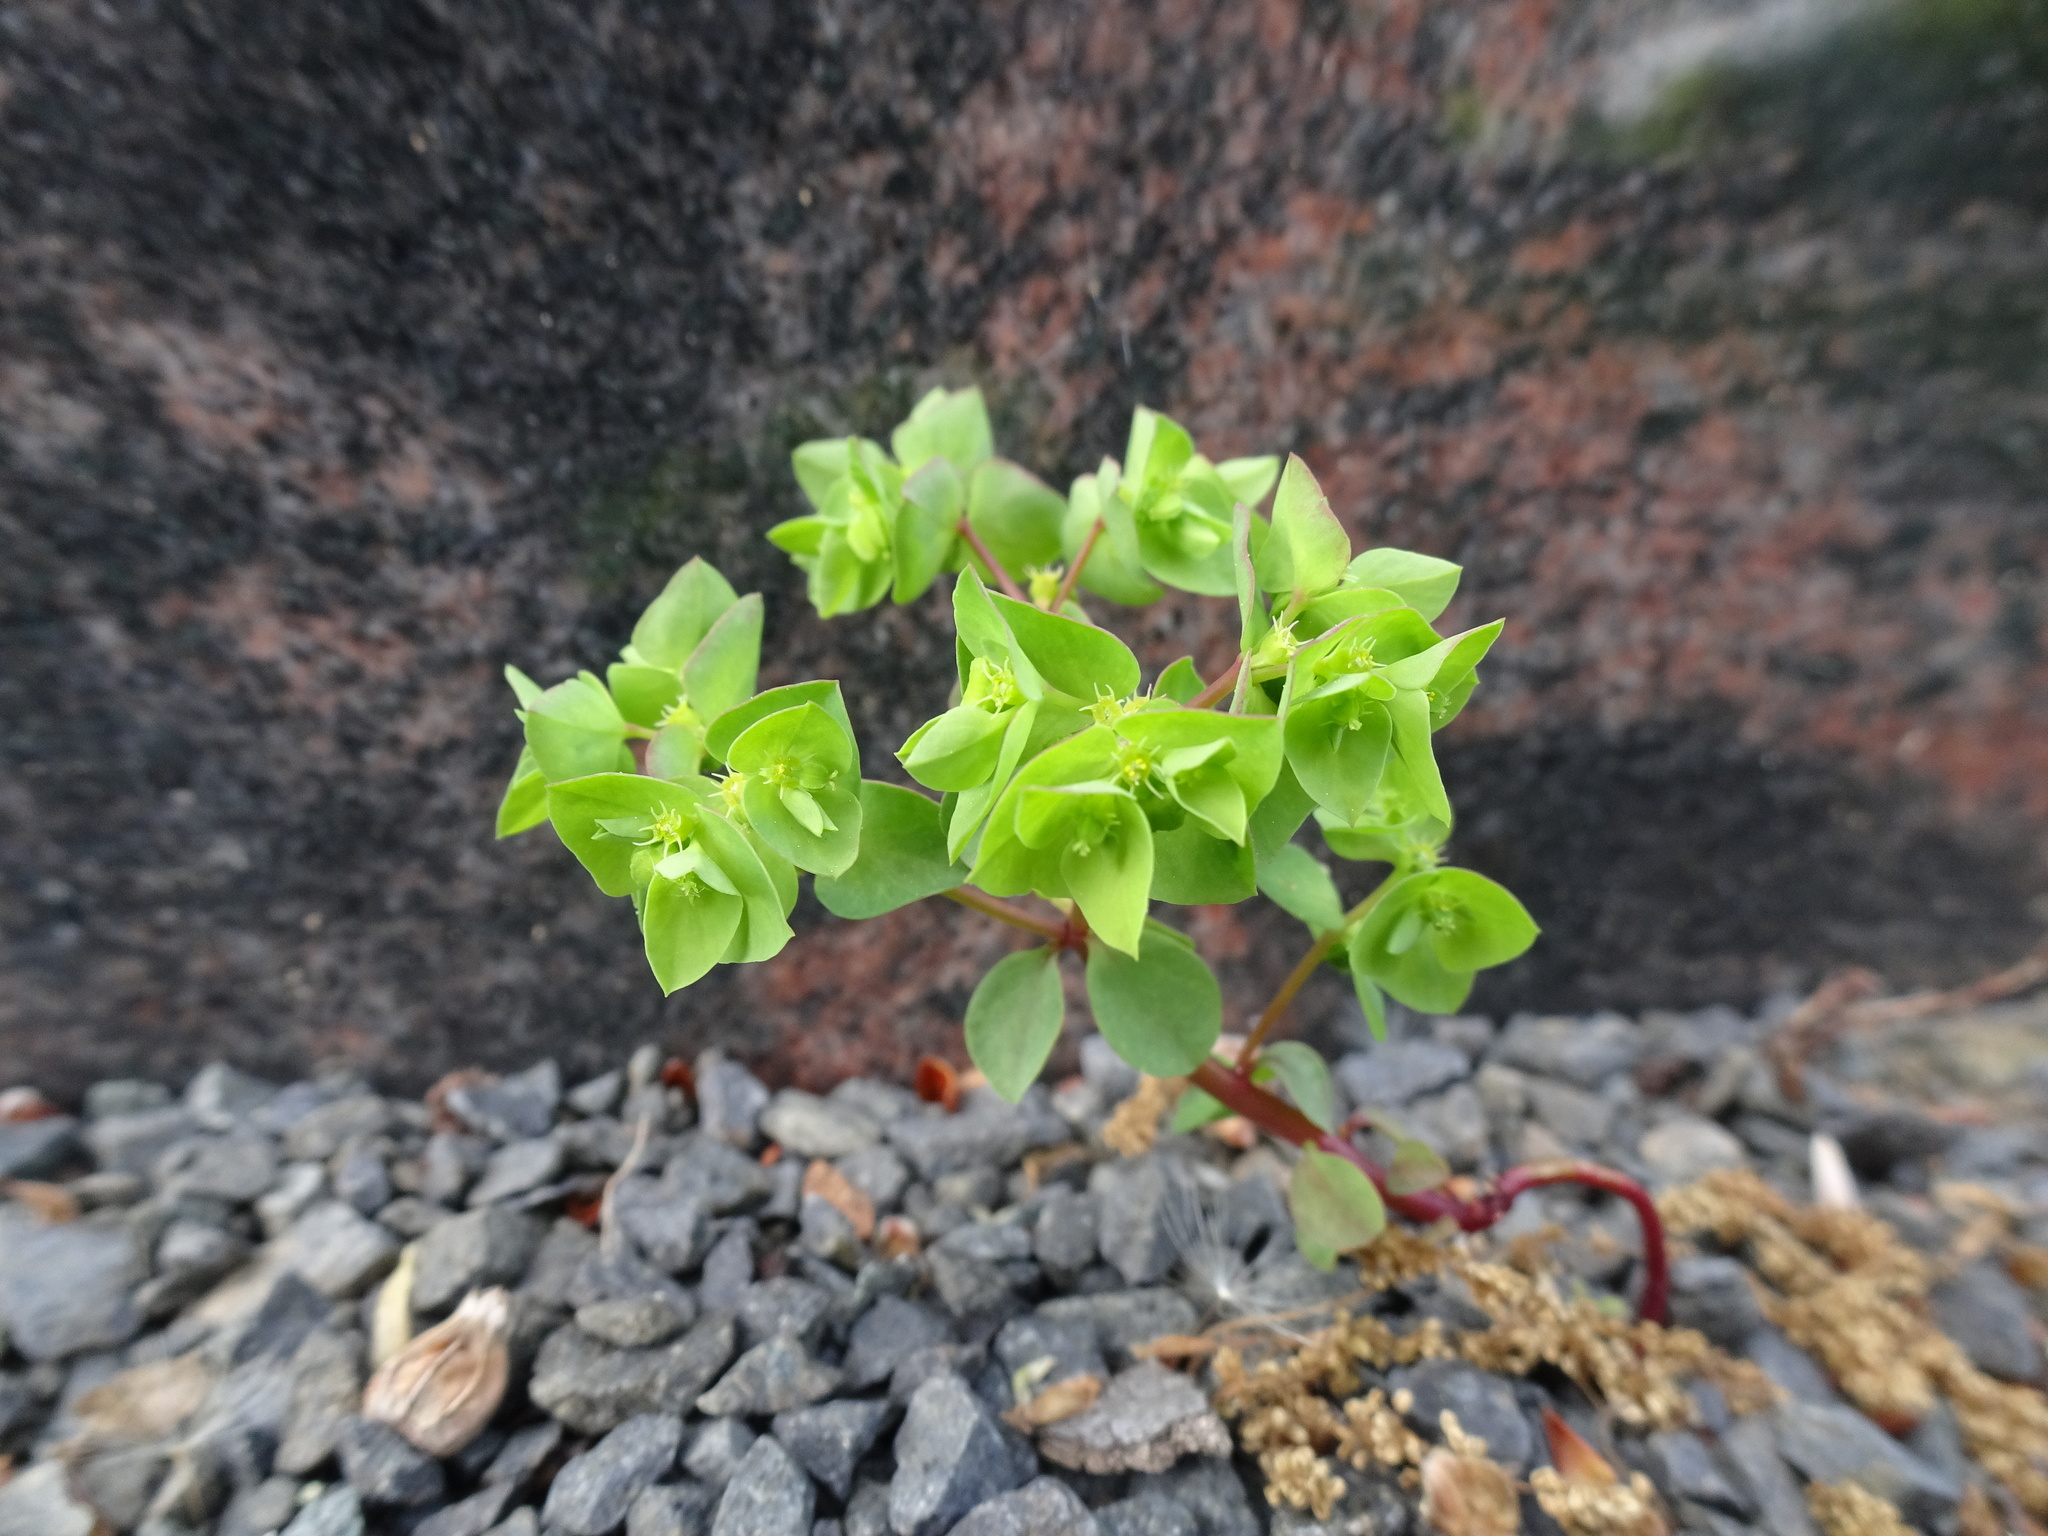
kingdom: Plantae
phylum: Tracheophyta
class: Magnoliopsida
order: Malpighiales
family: Euphorbiaceae
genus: Euphorbia
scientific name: Euphorbia peplus
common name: Petty spurge
